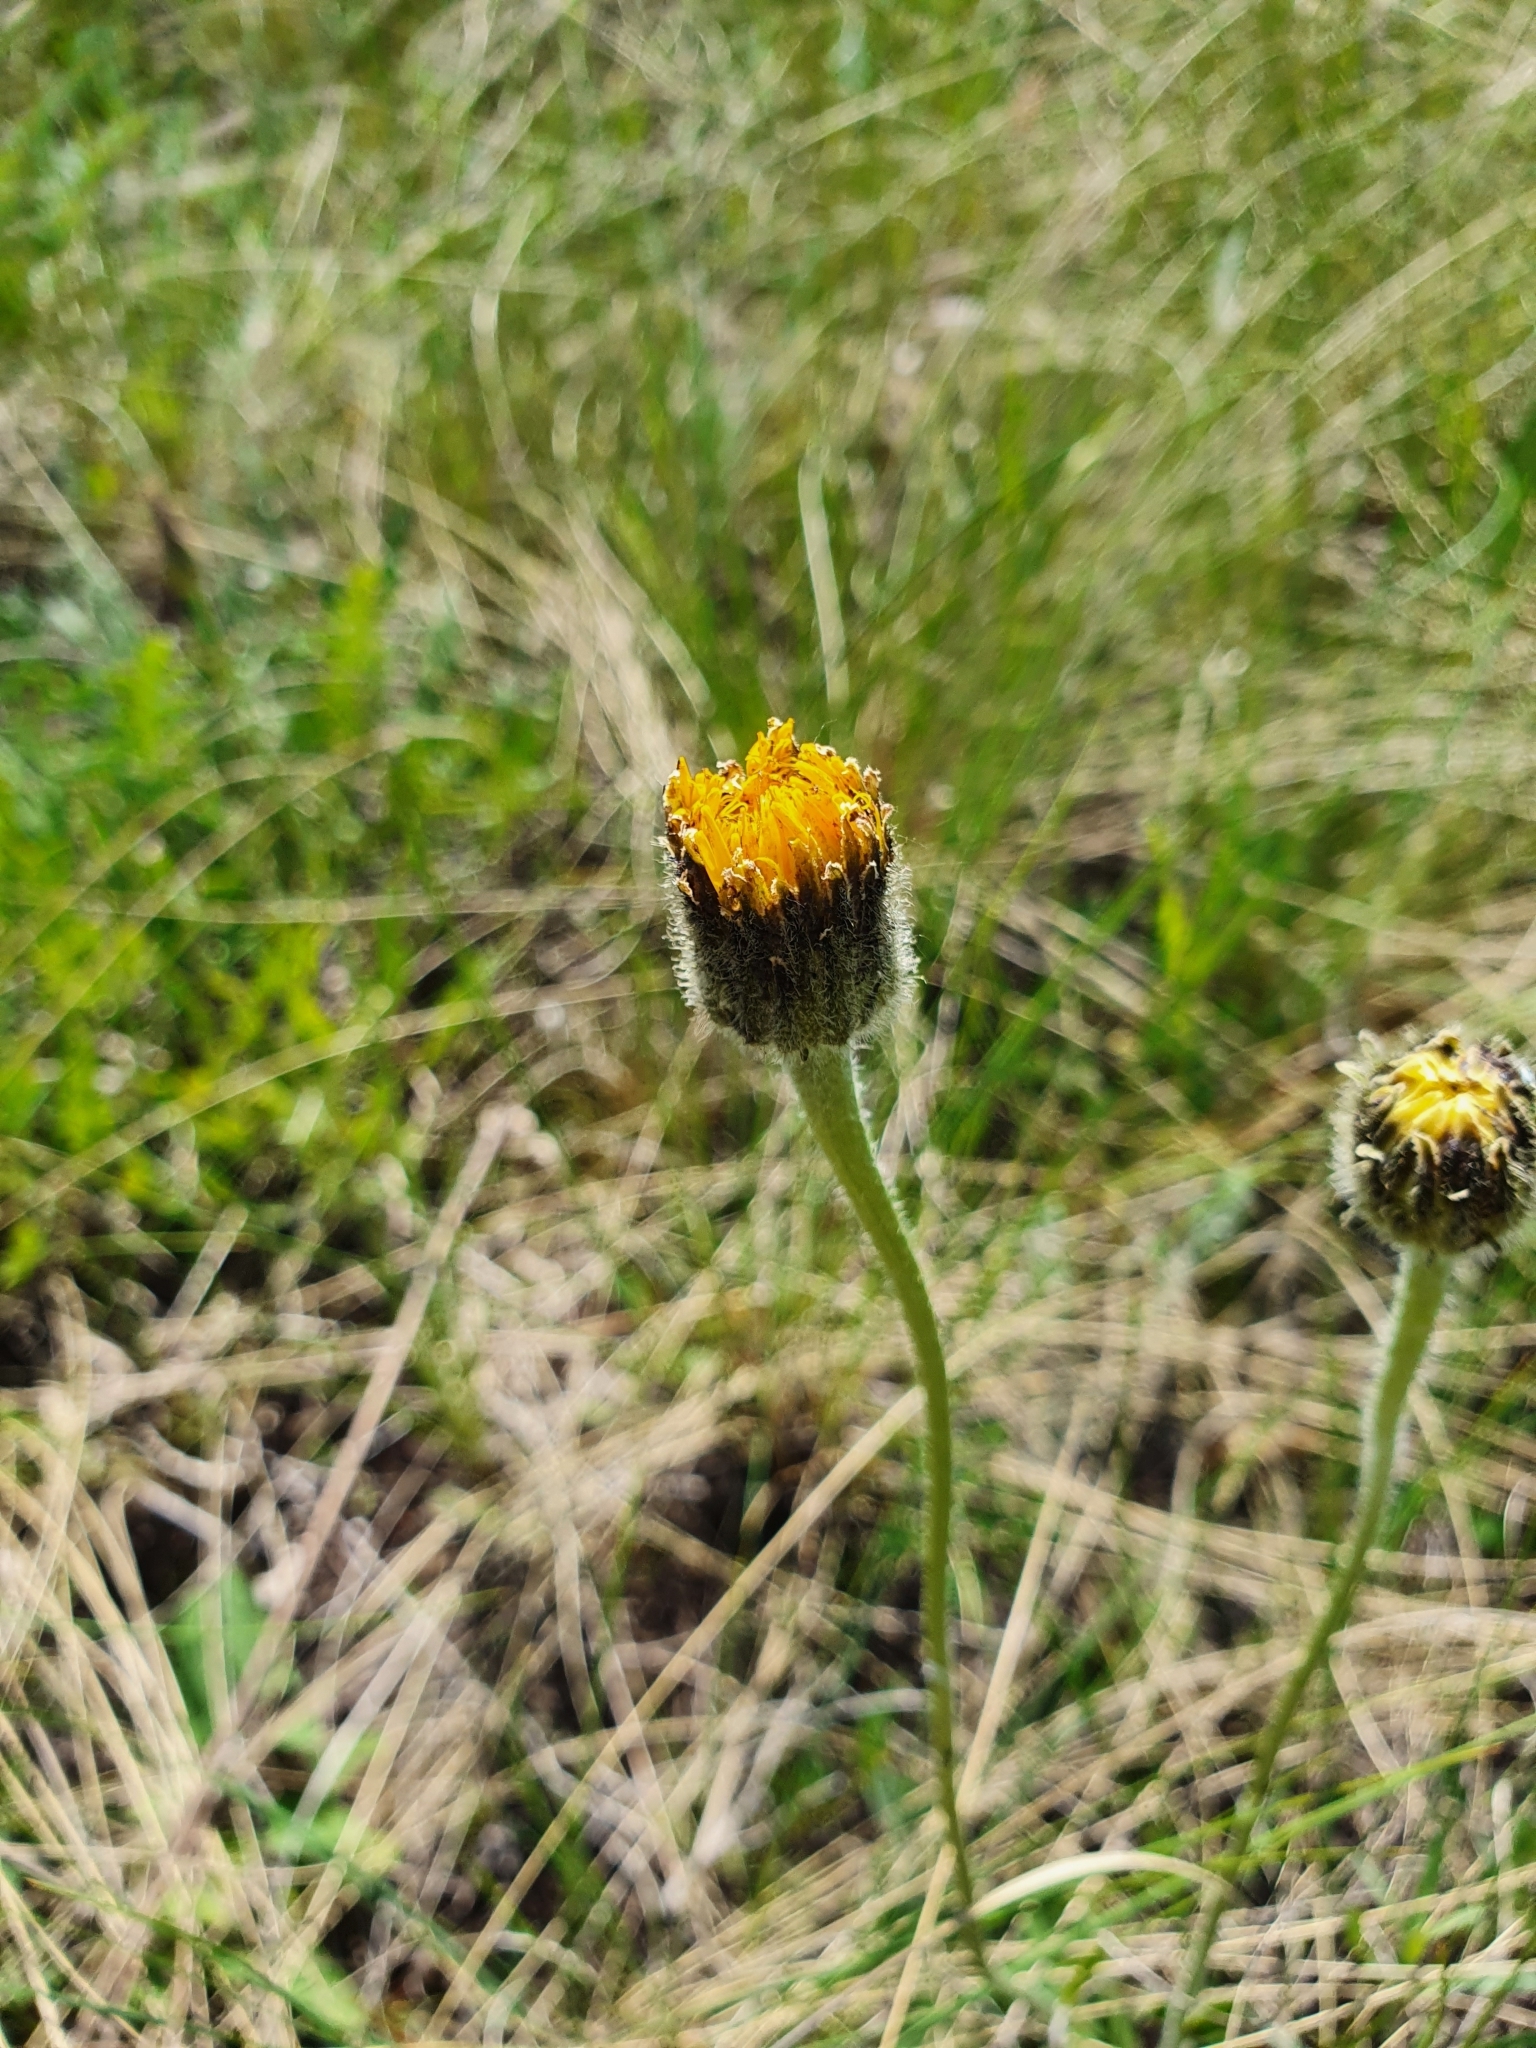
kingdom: Plantae
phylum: Tracheophyta
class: Magnoliopsida
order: Asterales
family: Asteraceae
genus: Trommsdorffia
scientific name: Trommsdorffia maculata
